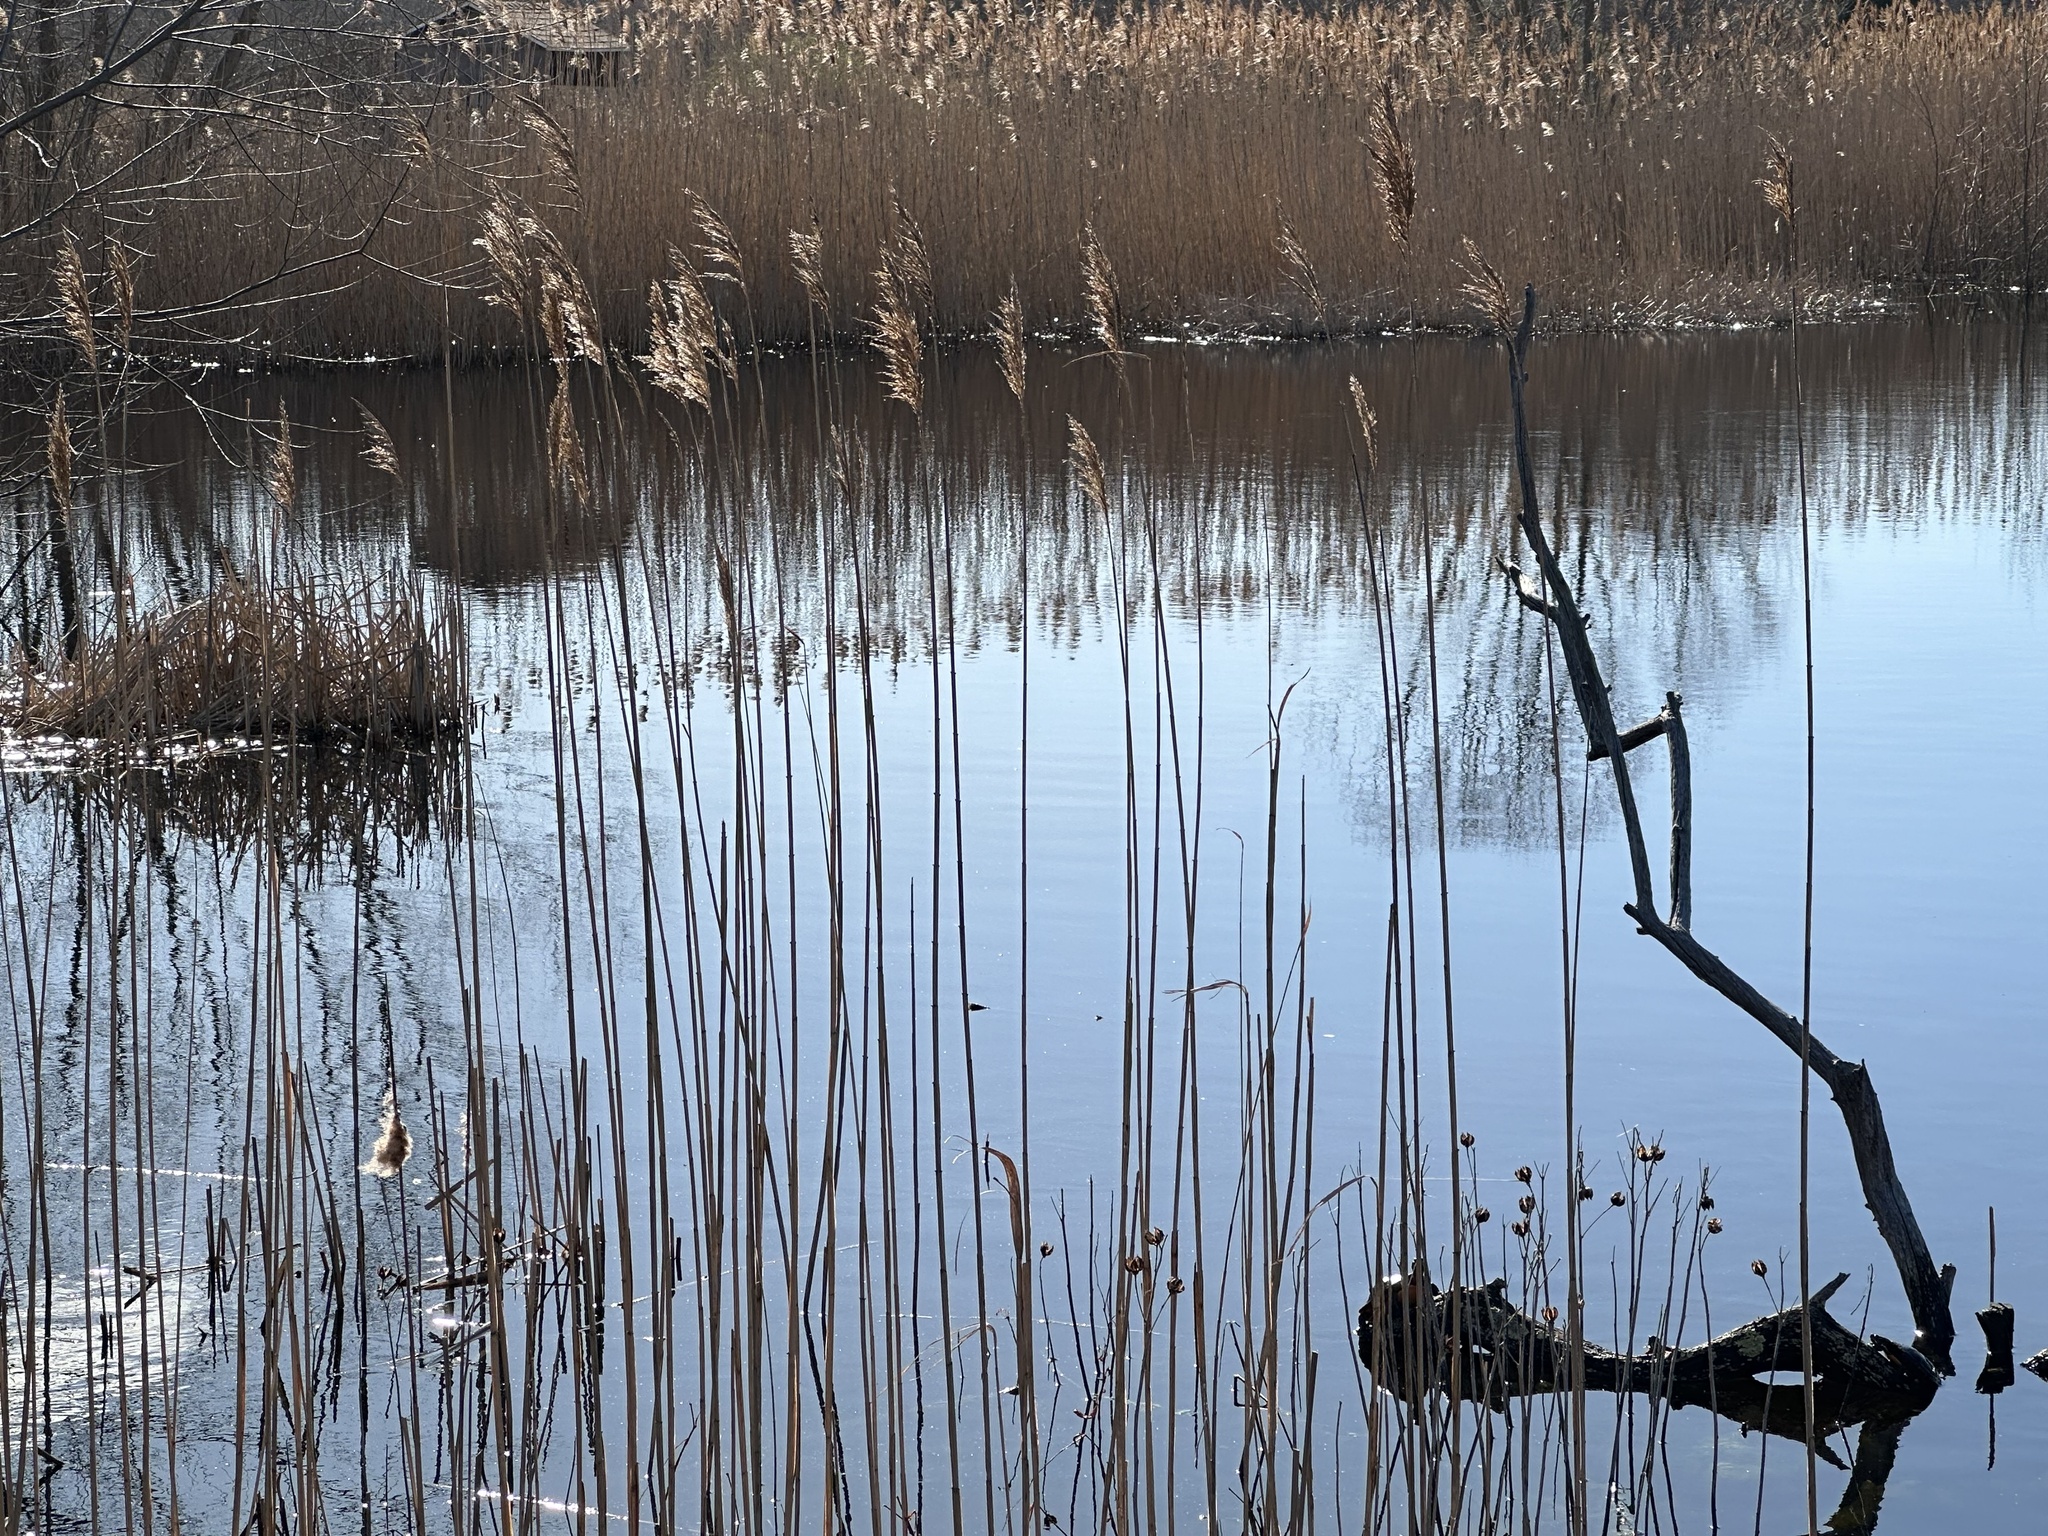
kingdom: Plantae
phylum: Tracheophyta
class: Liliopsida
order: Poales
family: Poaceae
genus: Phragmites
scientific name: Phragmites australis
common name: Common reed
